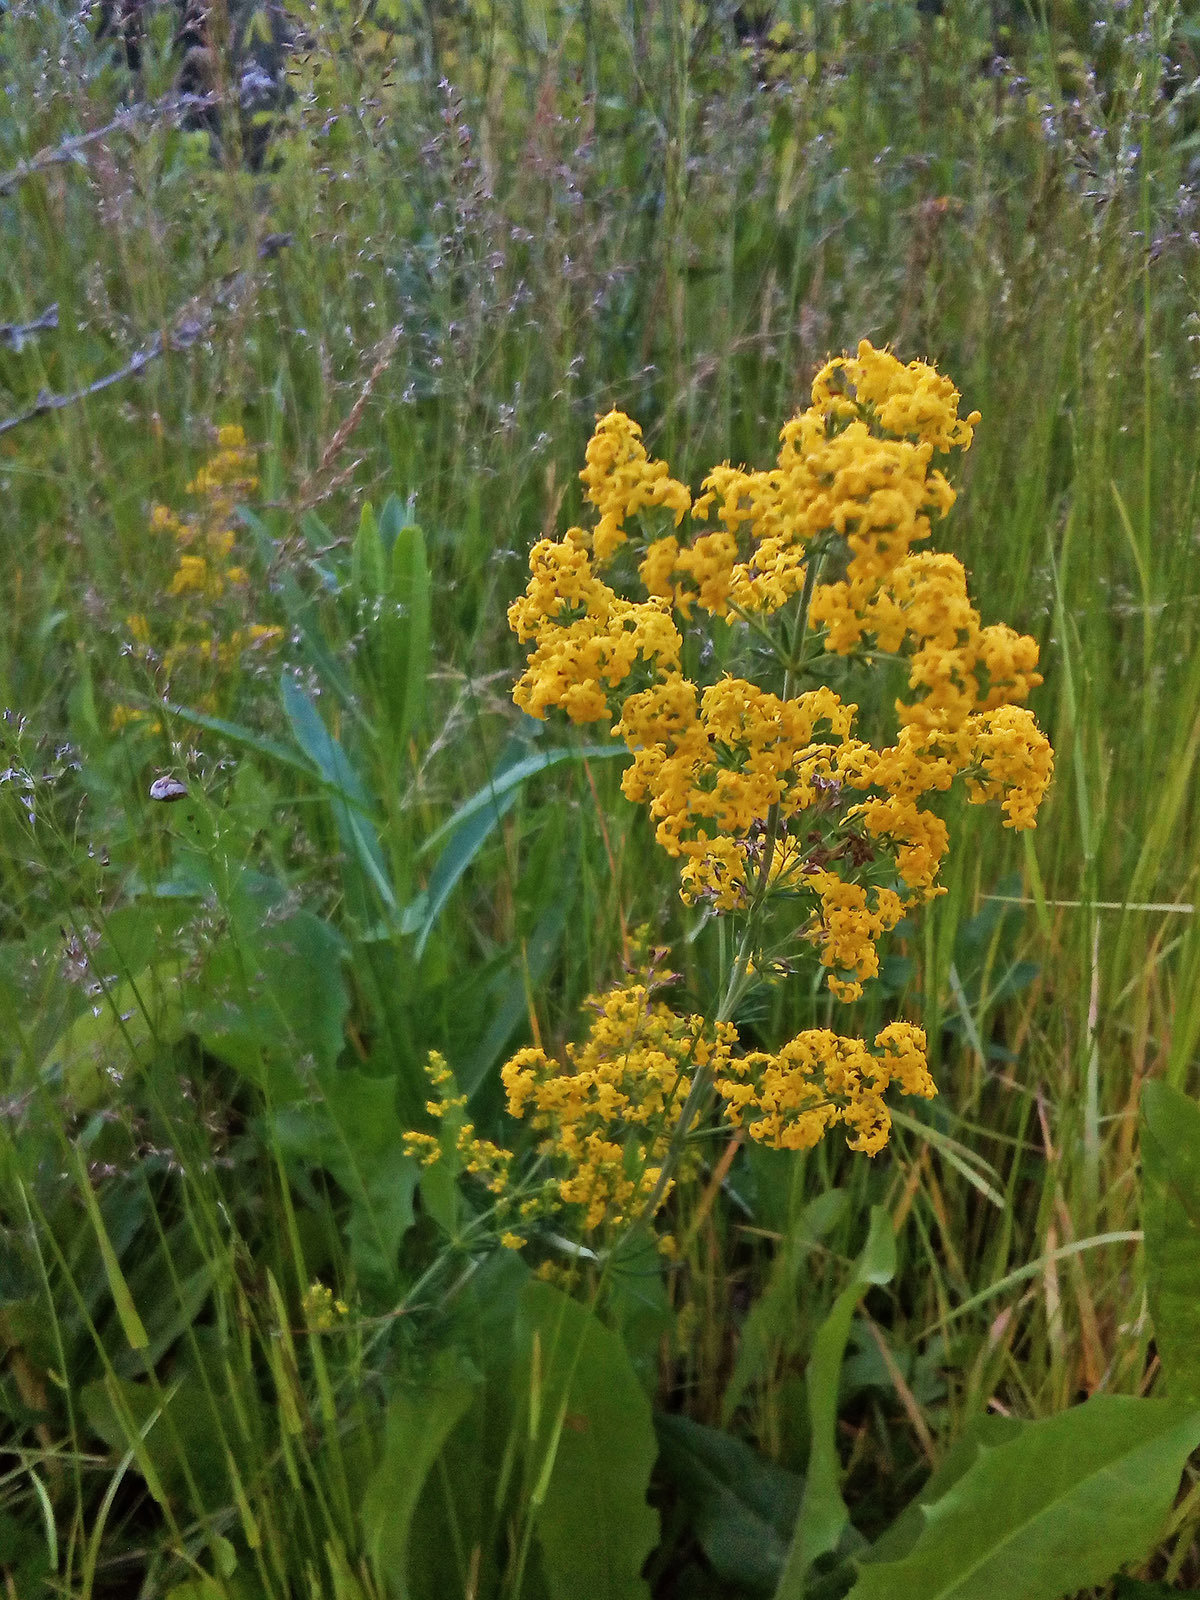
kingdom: Plantae
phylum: Tracheophyta
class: Magnoliopsida
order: Gentianales
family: Rubiaceae
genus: Galium
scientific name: Galium verum
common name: Lady's bedstraw
